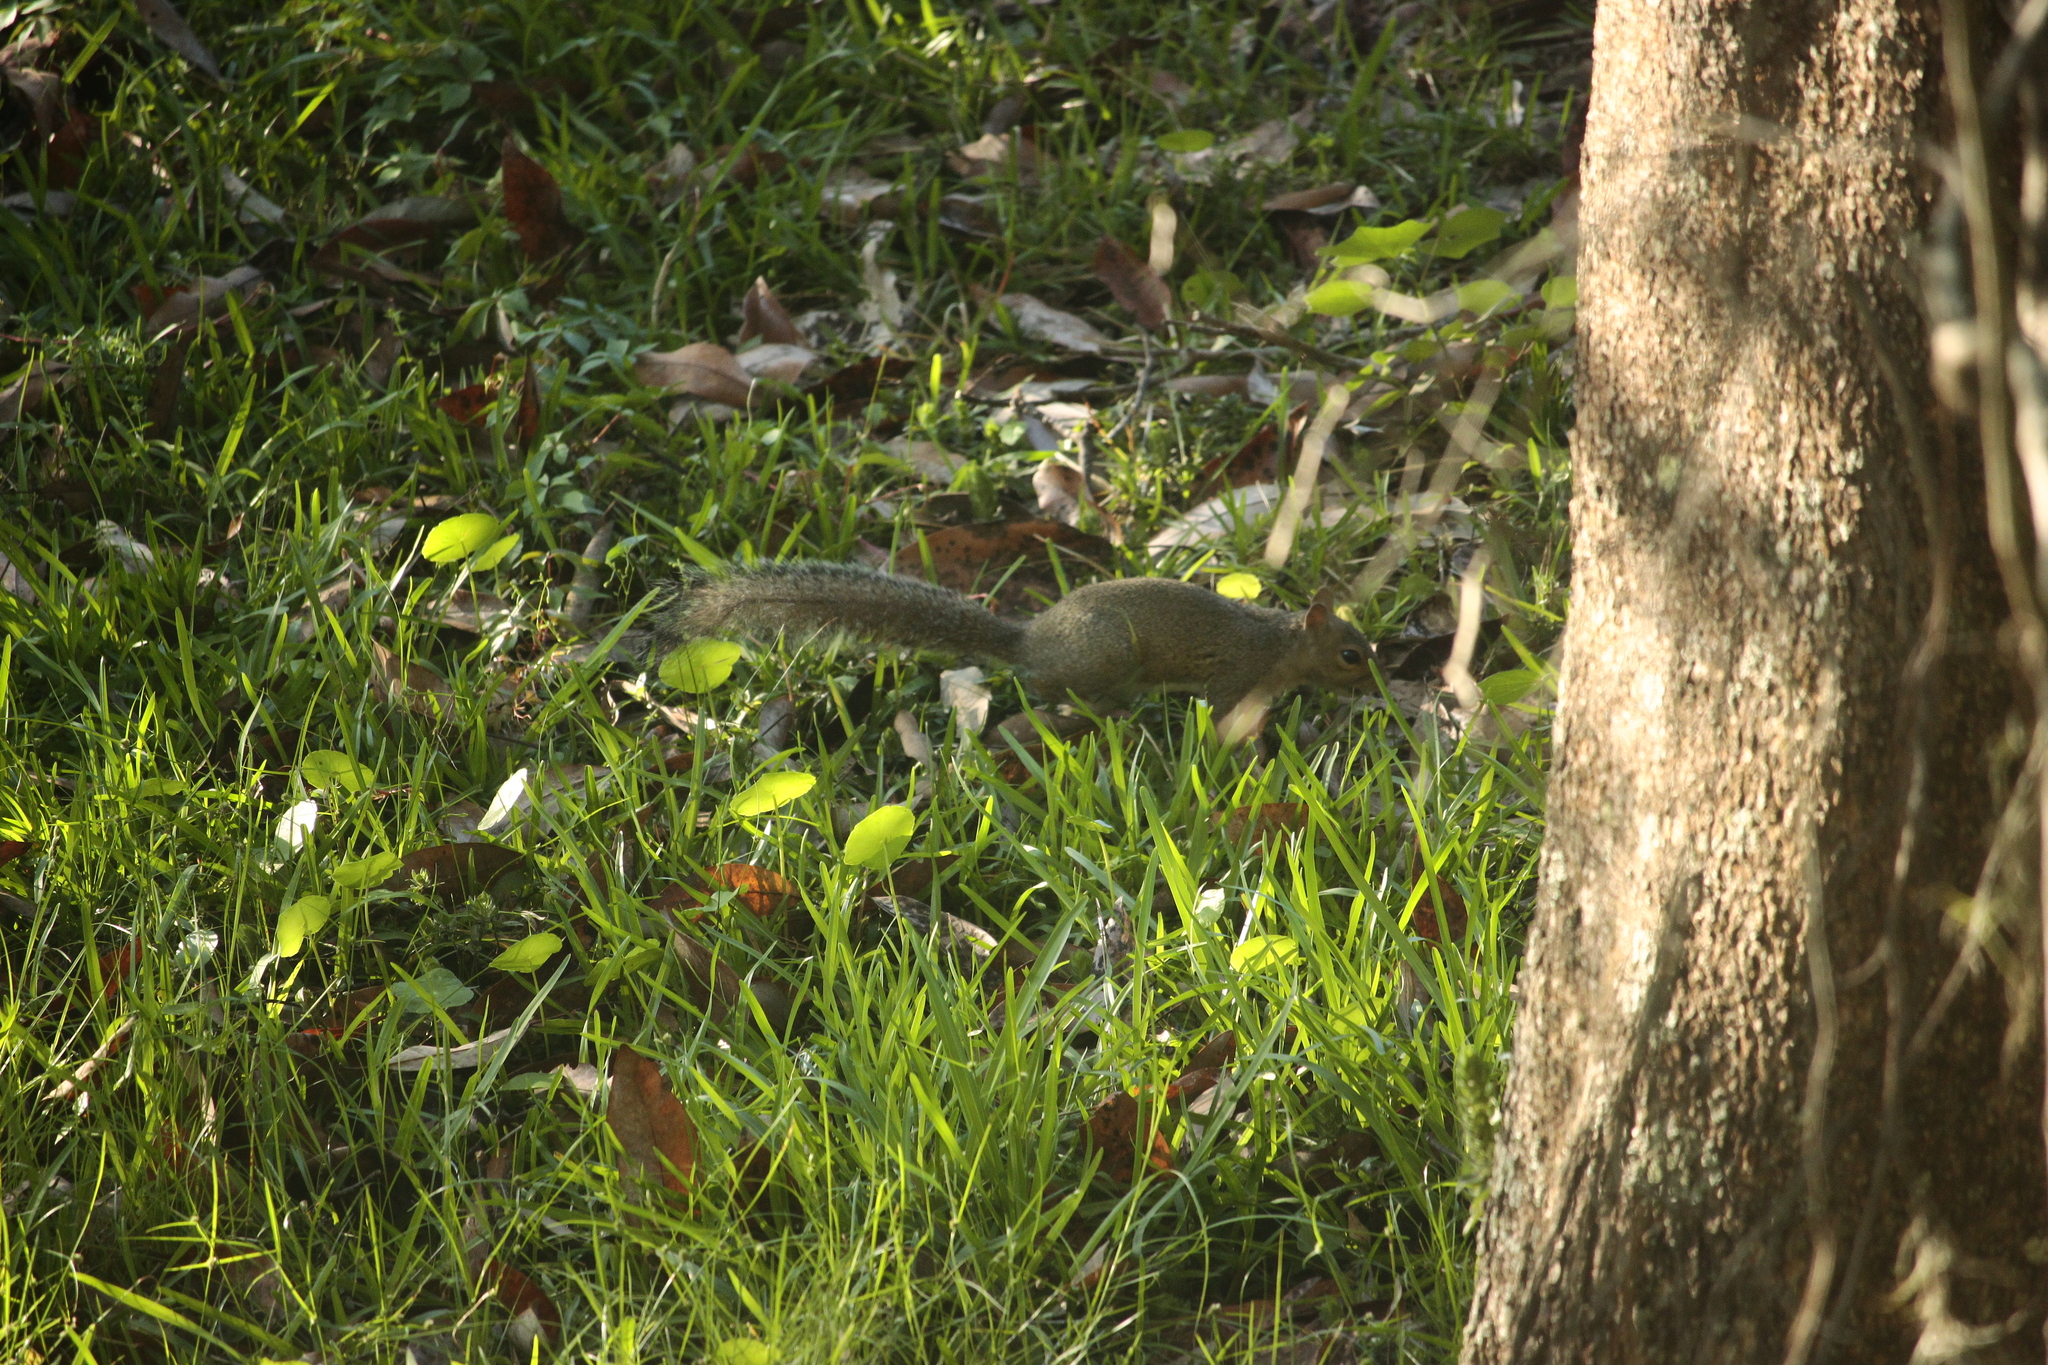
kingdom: Animalia
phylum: Chordata
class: Mammalia
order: Rodentia
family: Sciuridae
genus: Sciurus
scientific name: Sciurus carolinensis
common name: Eastern gray squirrel
